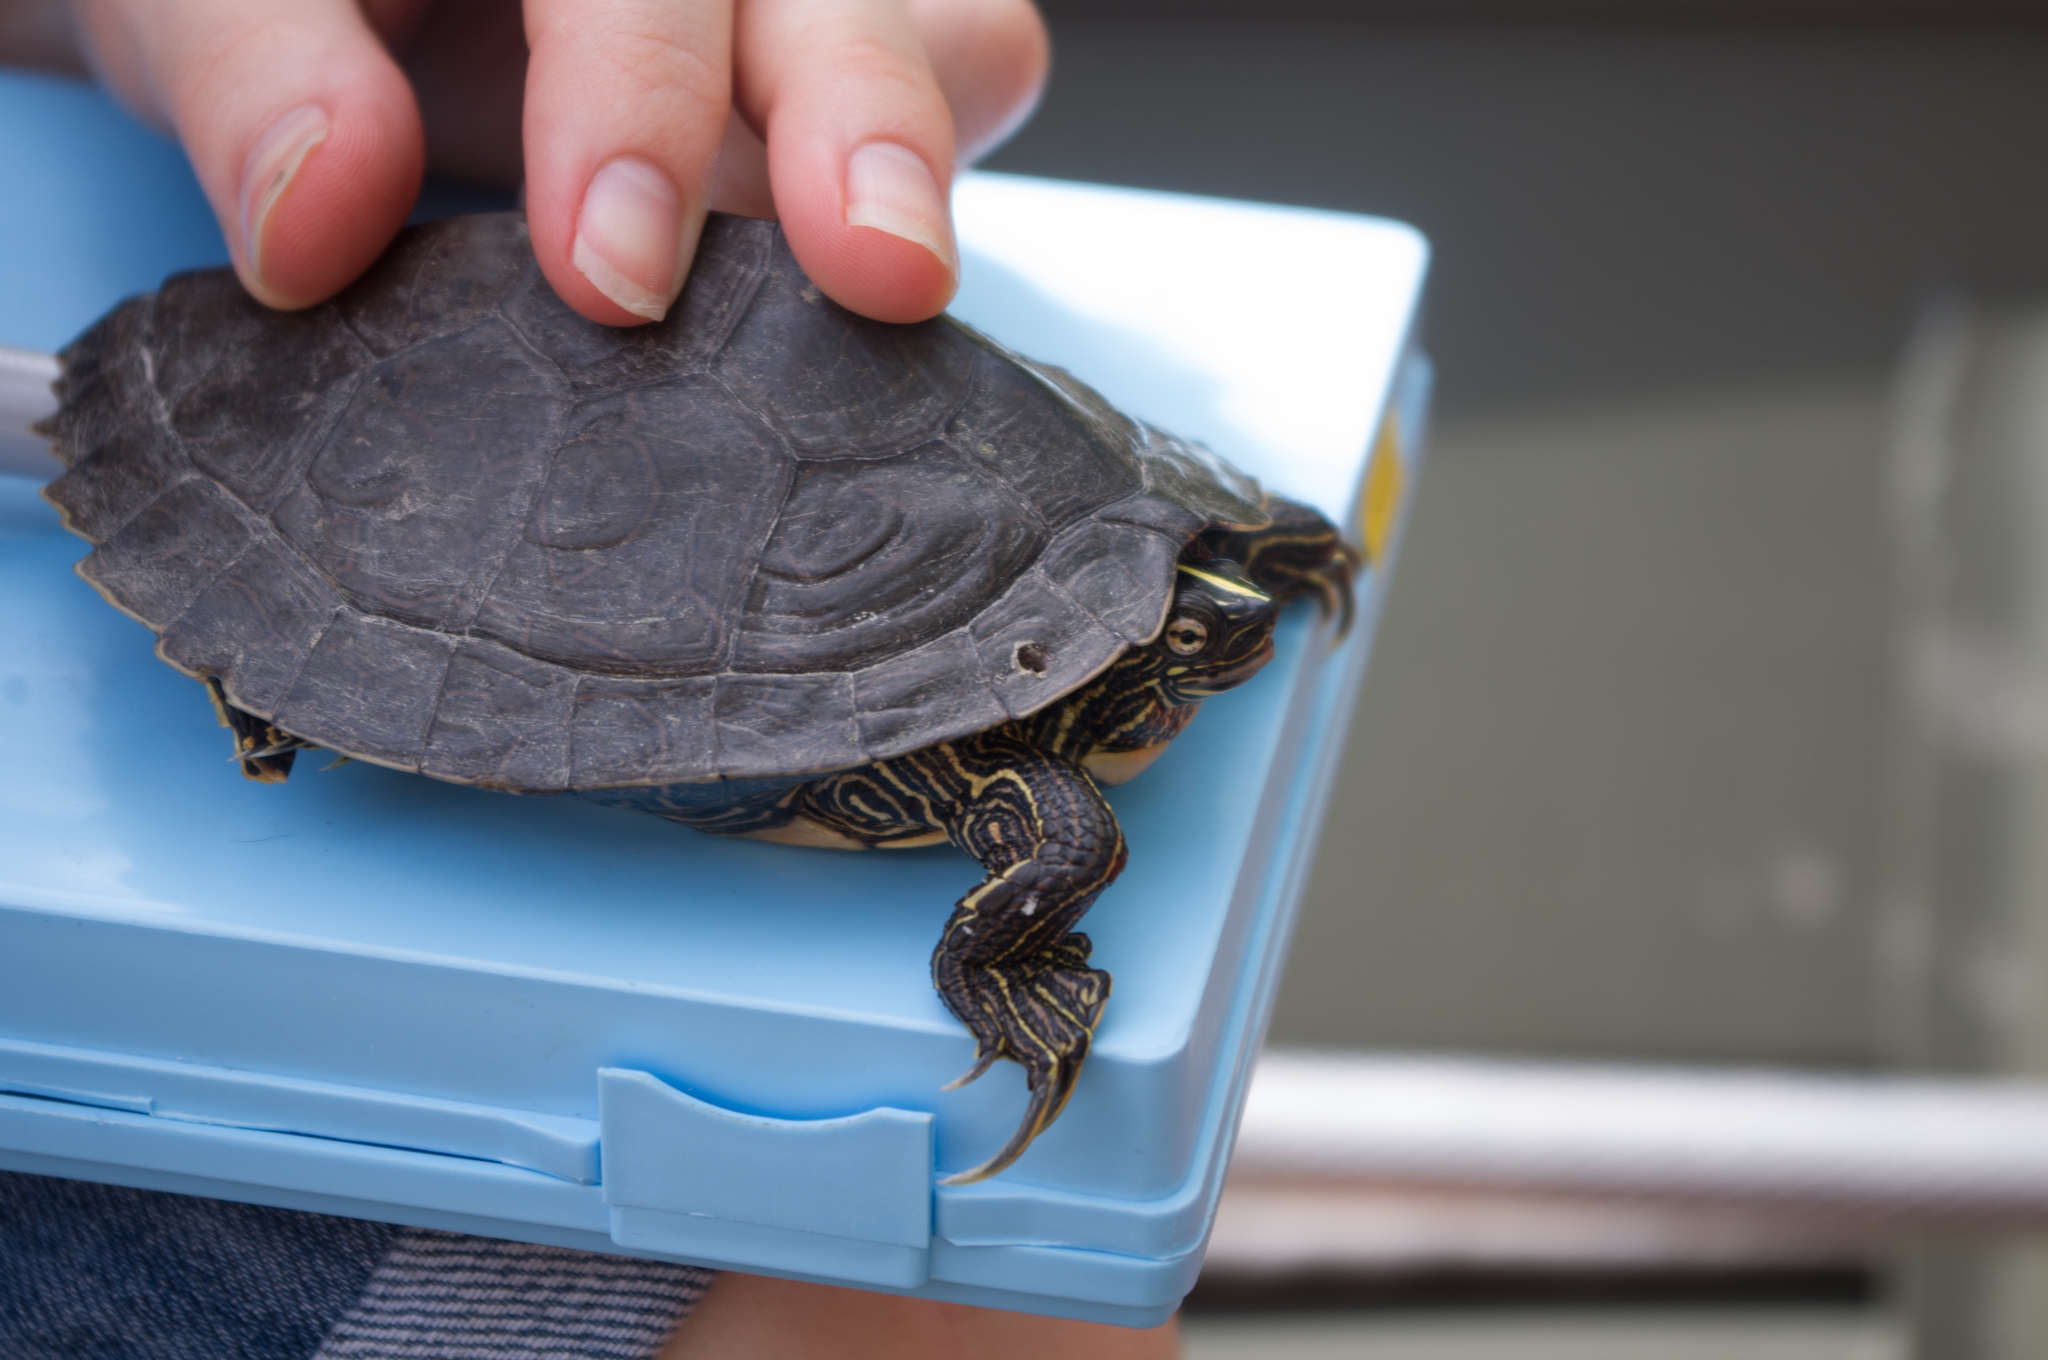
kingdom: Animalia
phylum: Chordata
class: Testudines
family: Emydidae
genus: Graptemys
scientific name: Graptemys sabinensis
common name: Sabine map turtle
